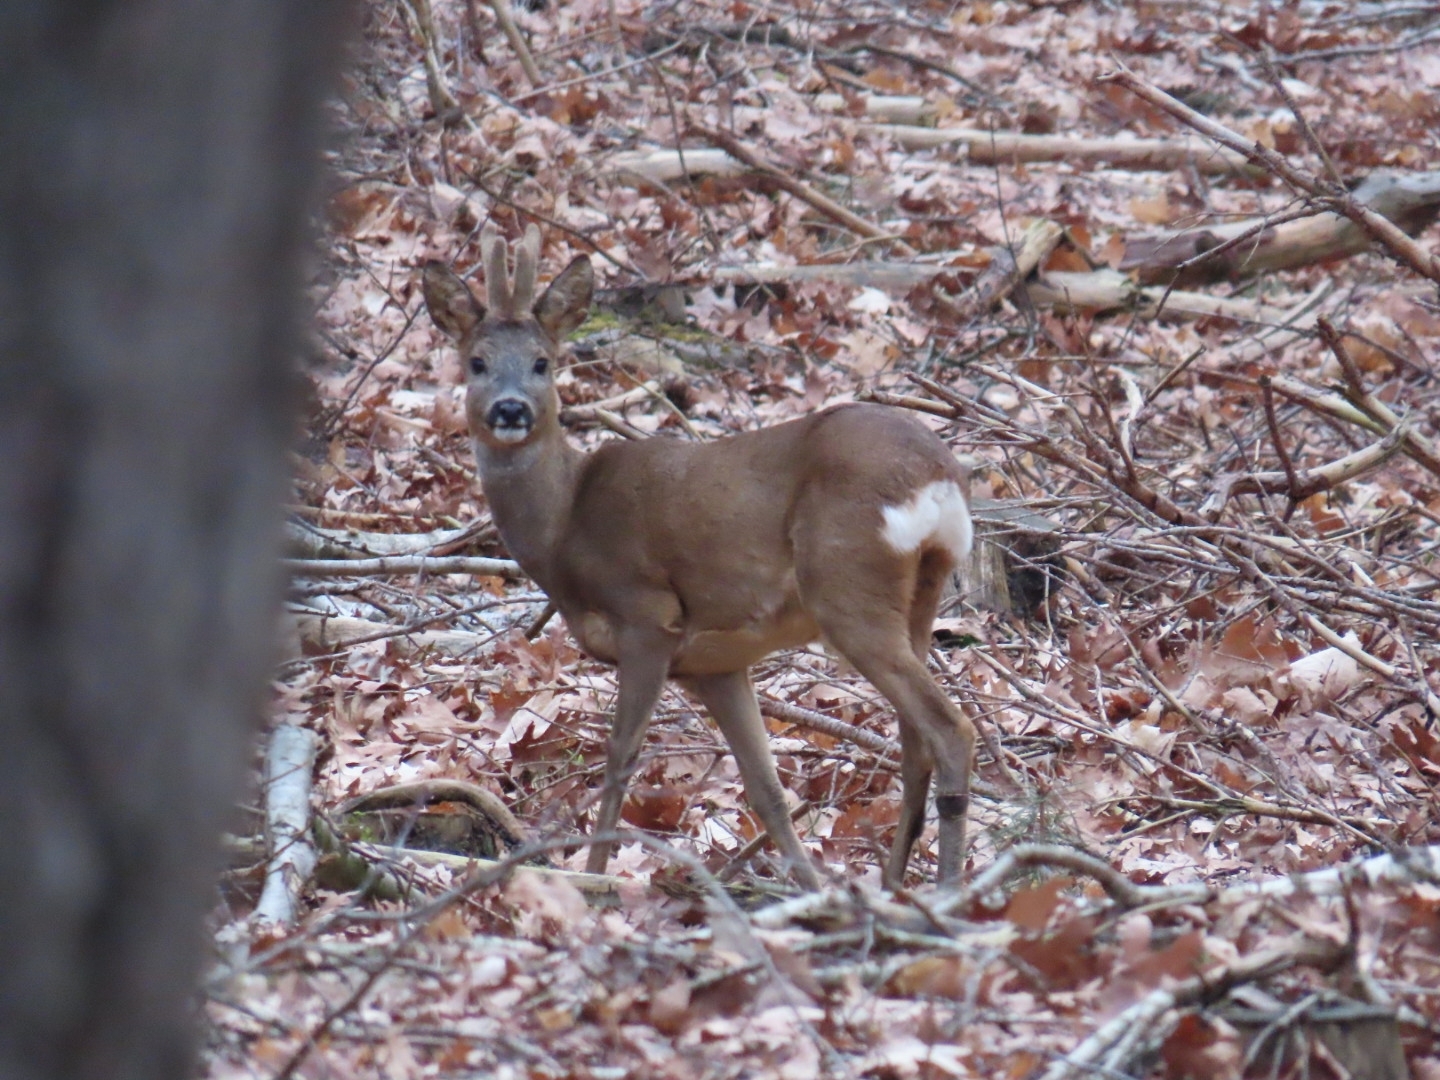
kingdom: Animalia
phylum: Chordata
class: Mammalia
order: Artiodactyla
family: Cervidae
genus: Capreolus
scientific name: Capreolus capreolus
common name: Western roe deer
